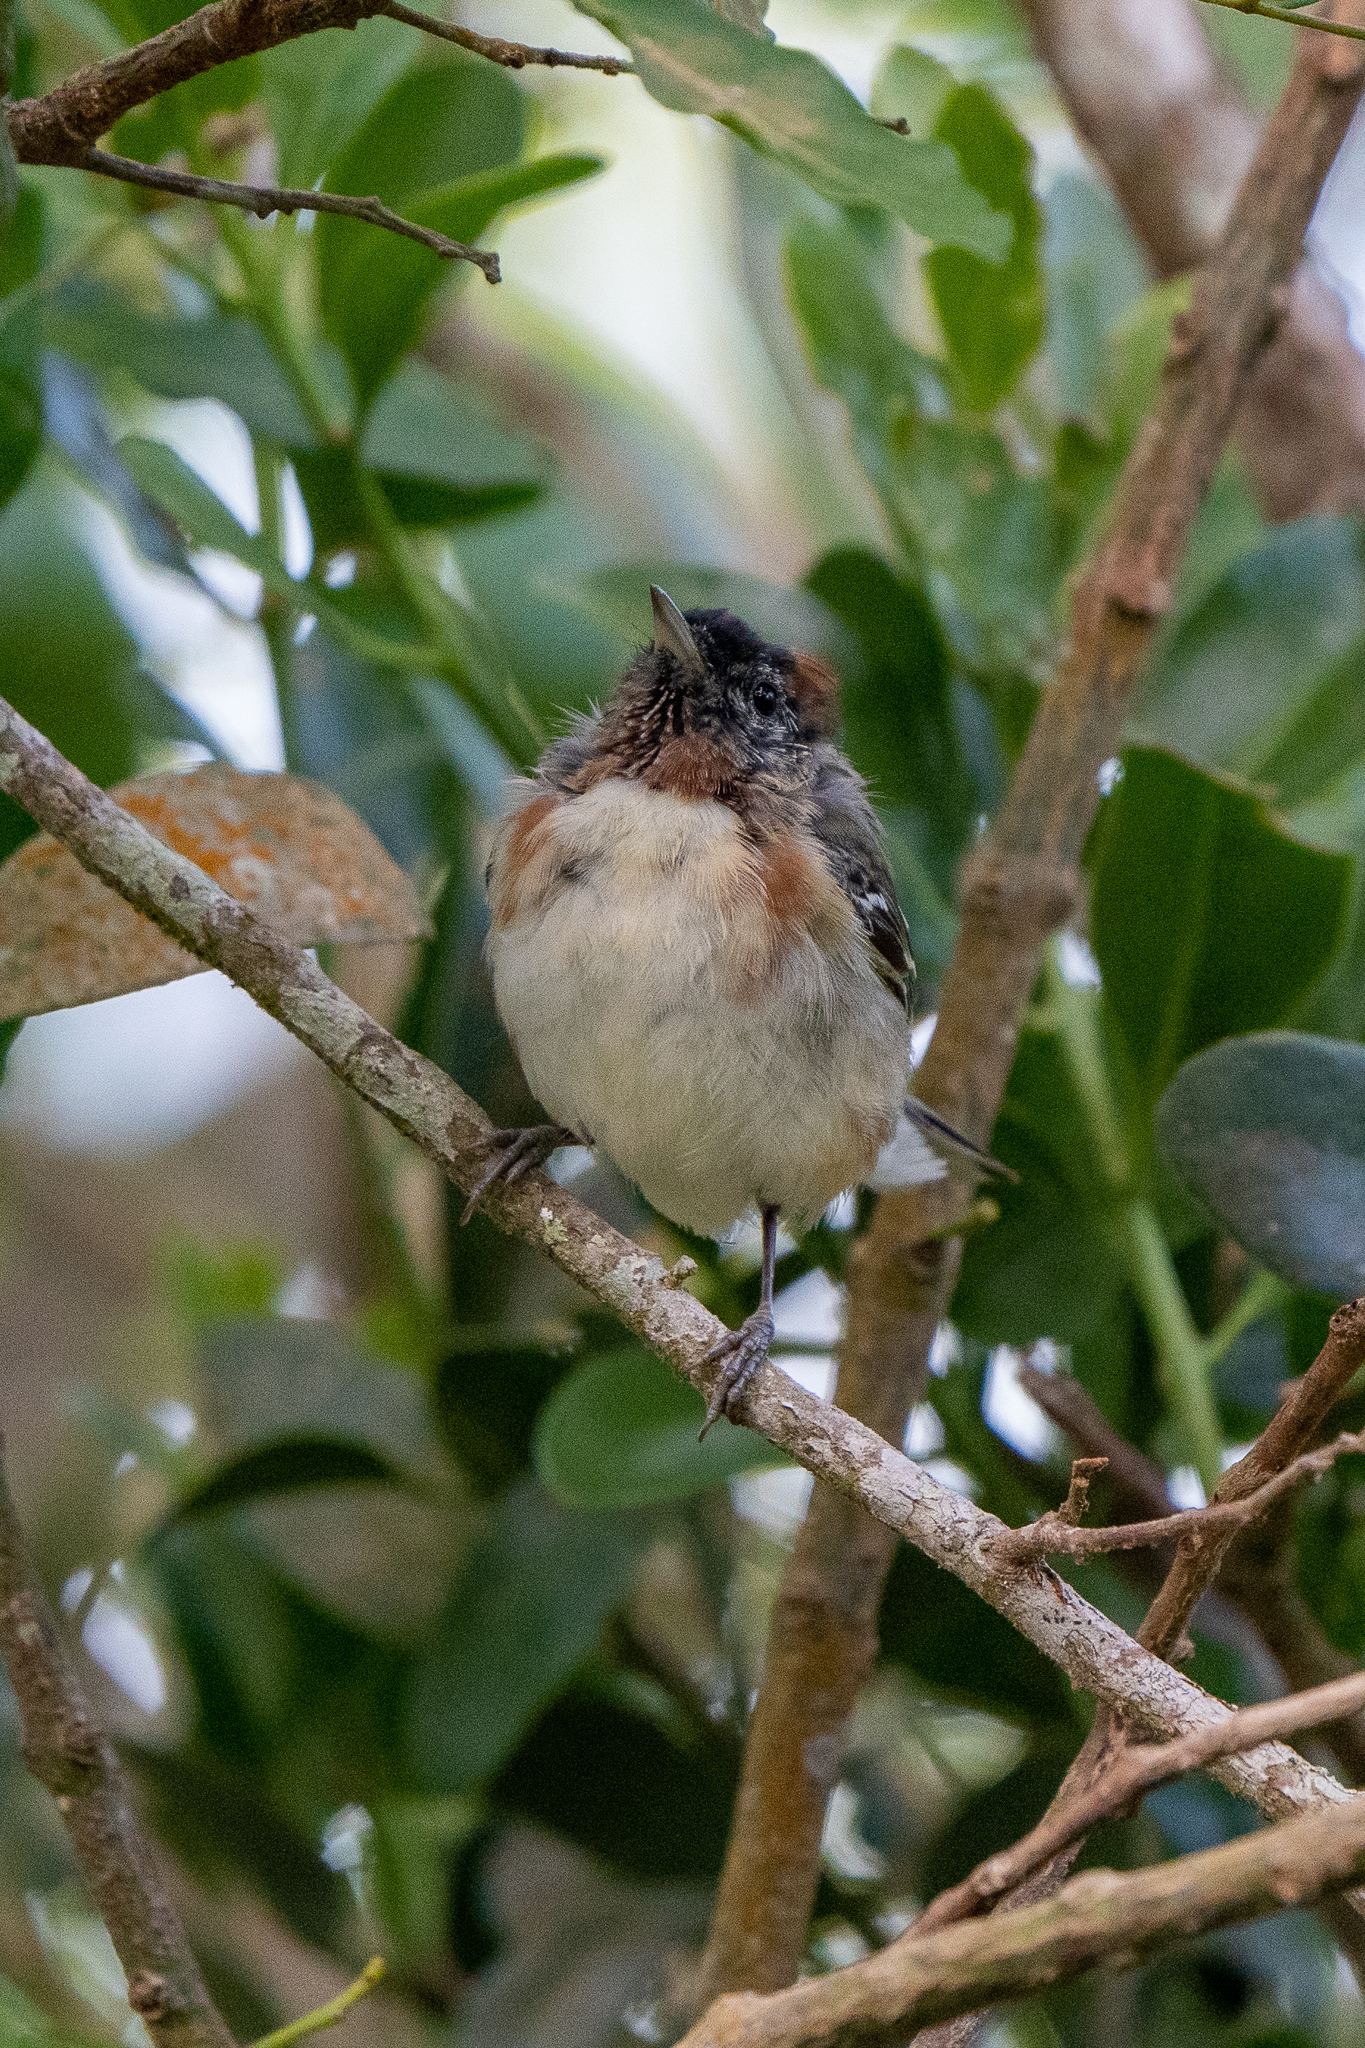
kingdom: Animalia
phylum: Chordata
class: Aves
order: Passeriformes
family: Parulidae
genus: Setophaga
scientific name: Setophaga castanea
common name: Bay-breasted warbler
